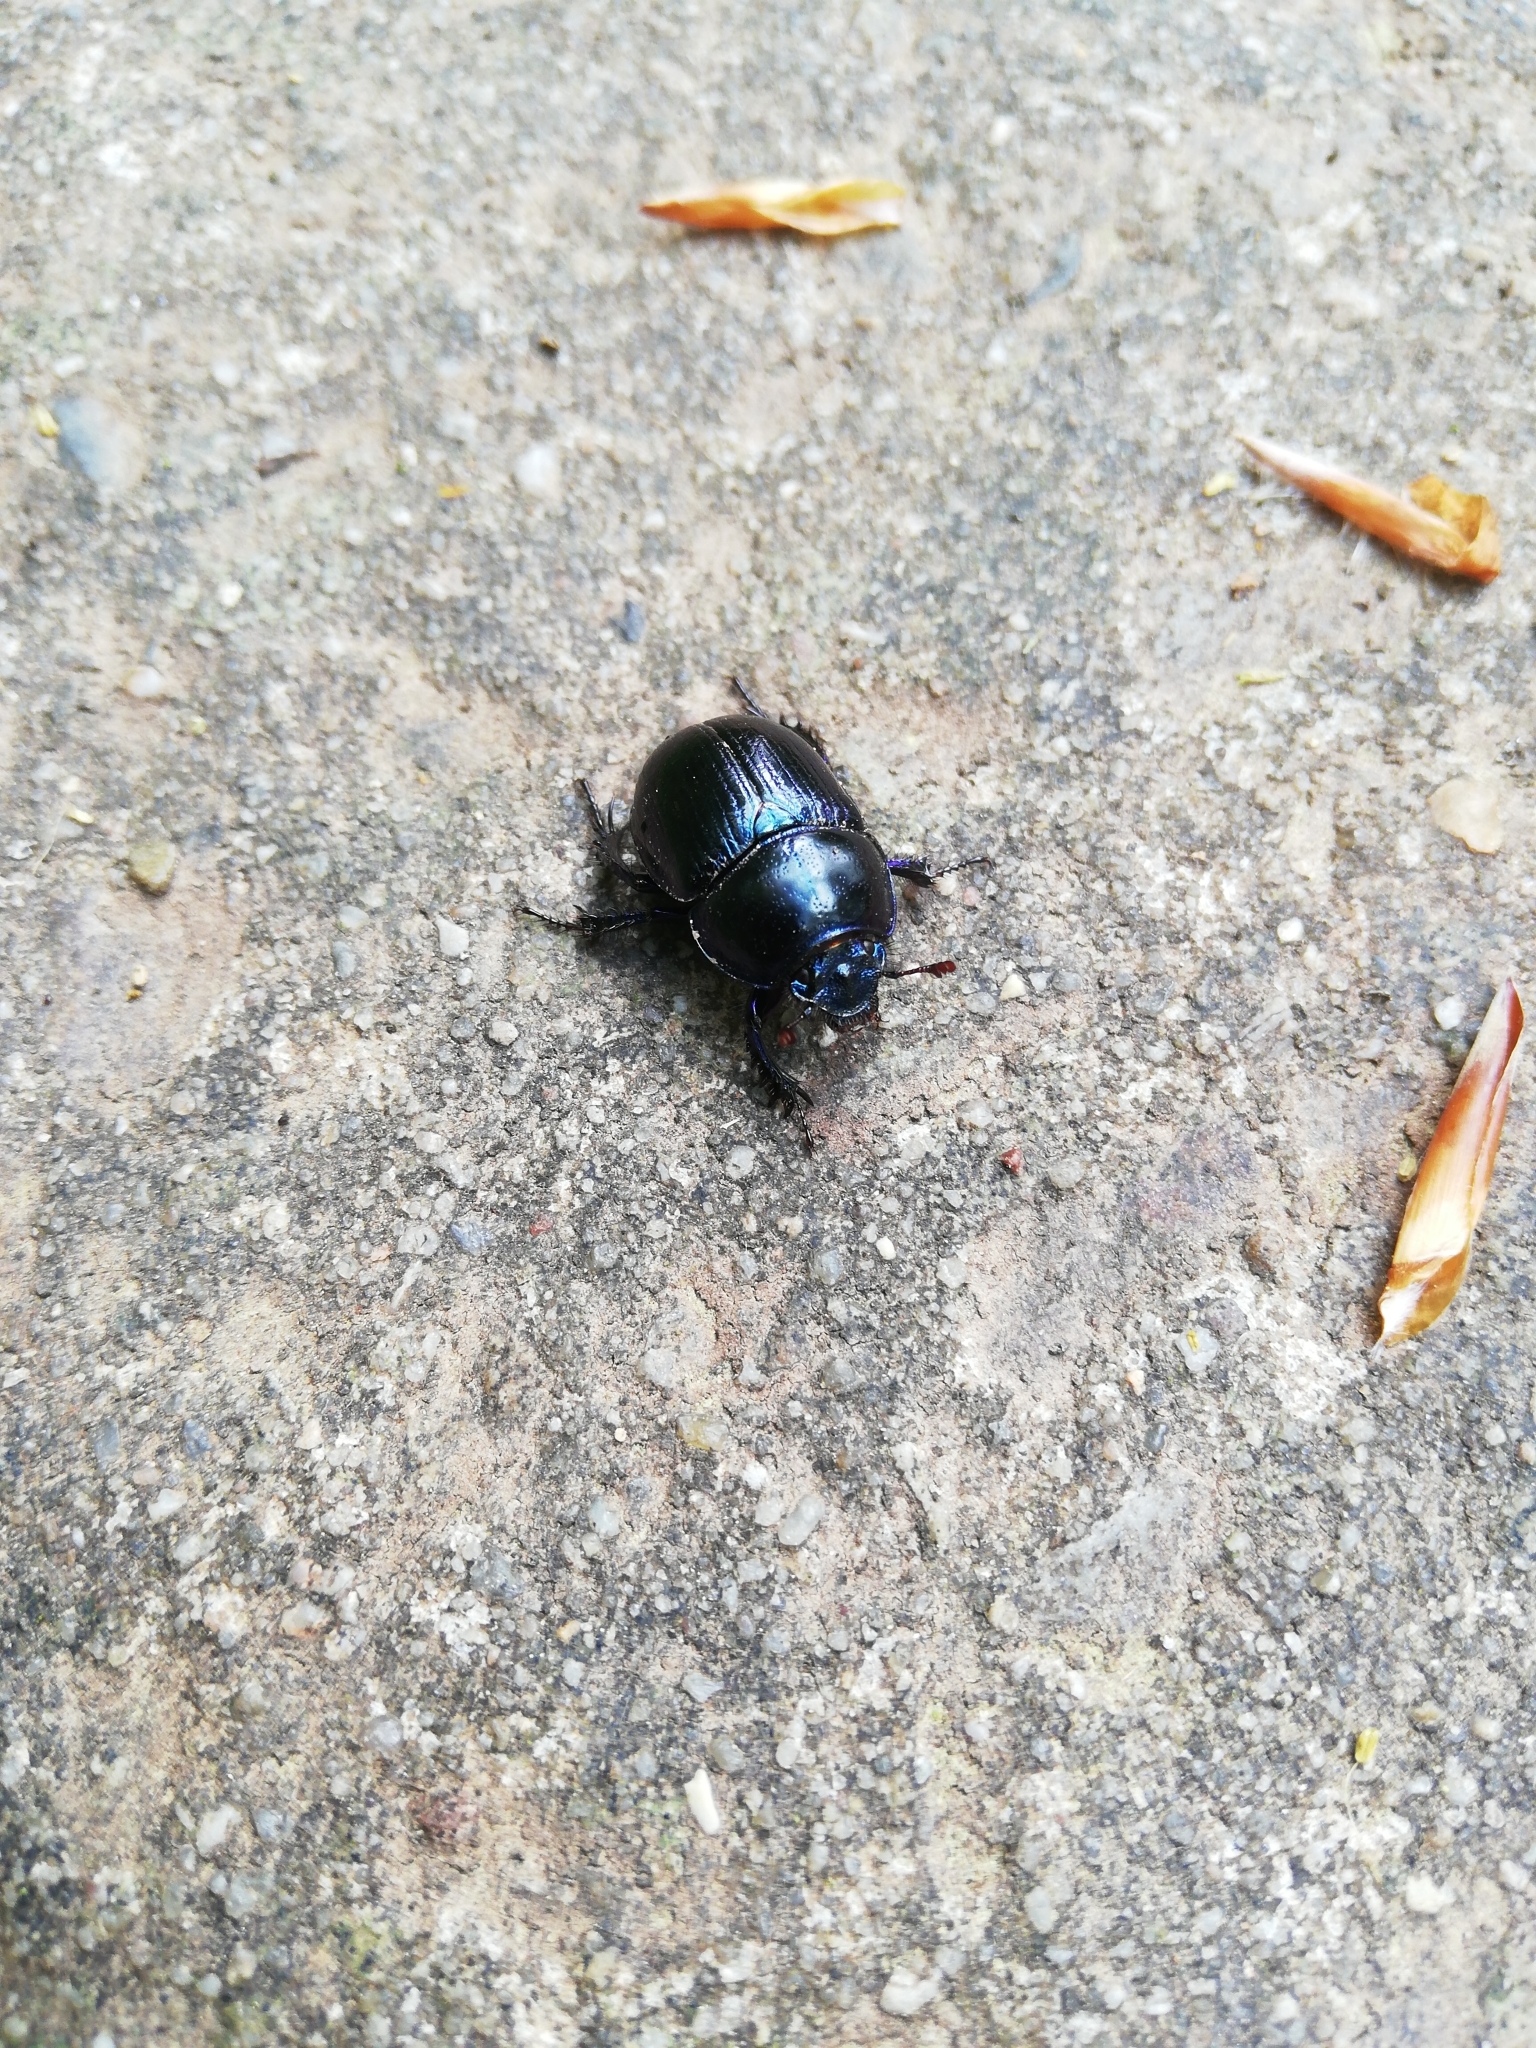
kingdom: Animalia
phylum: Arthropoda
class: Insecta
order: Coleoptera
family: Geotrupidae
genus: Anoplotrupes
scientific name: Anoplotrupes stercorosus
